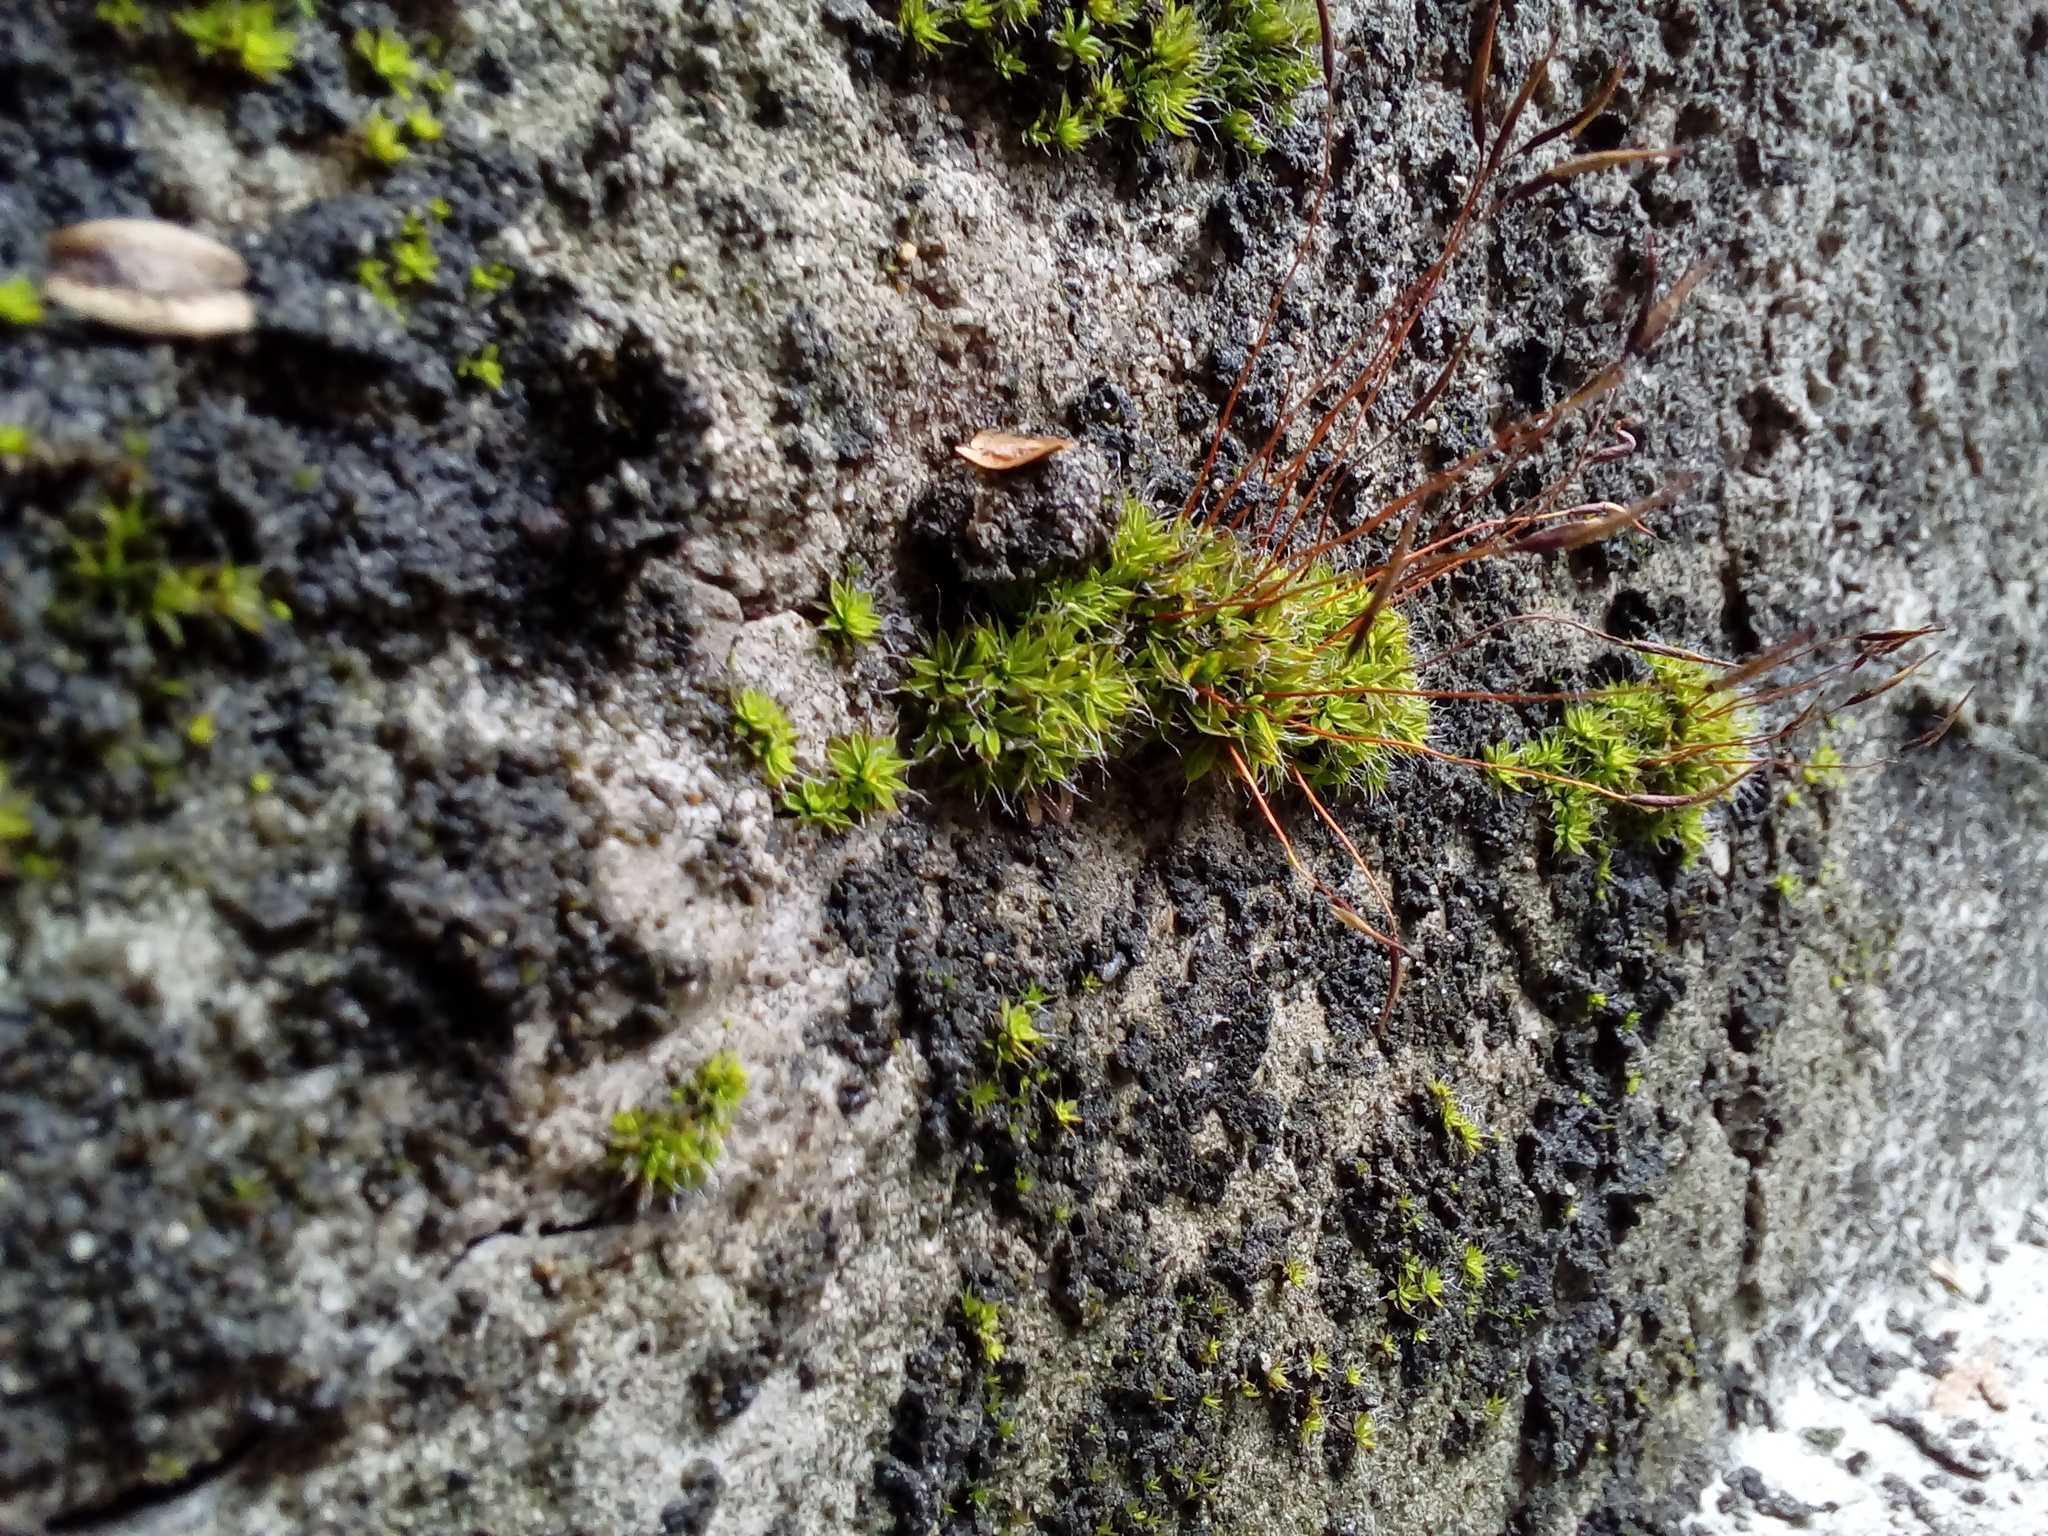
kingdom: Plantae
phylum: Bryophyta
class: Bryopsida
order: Pottiales
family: Pottiaceae
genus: Tortula
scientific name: Tortula muralis
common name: Wall screw-moss
